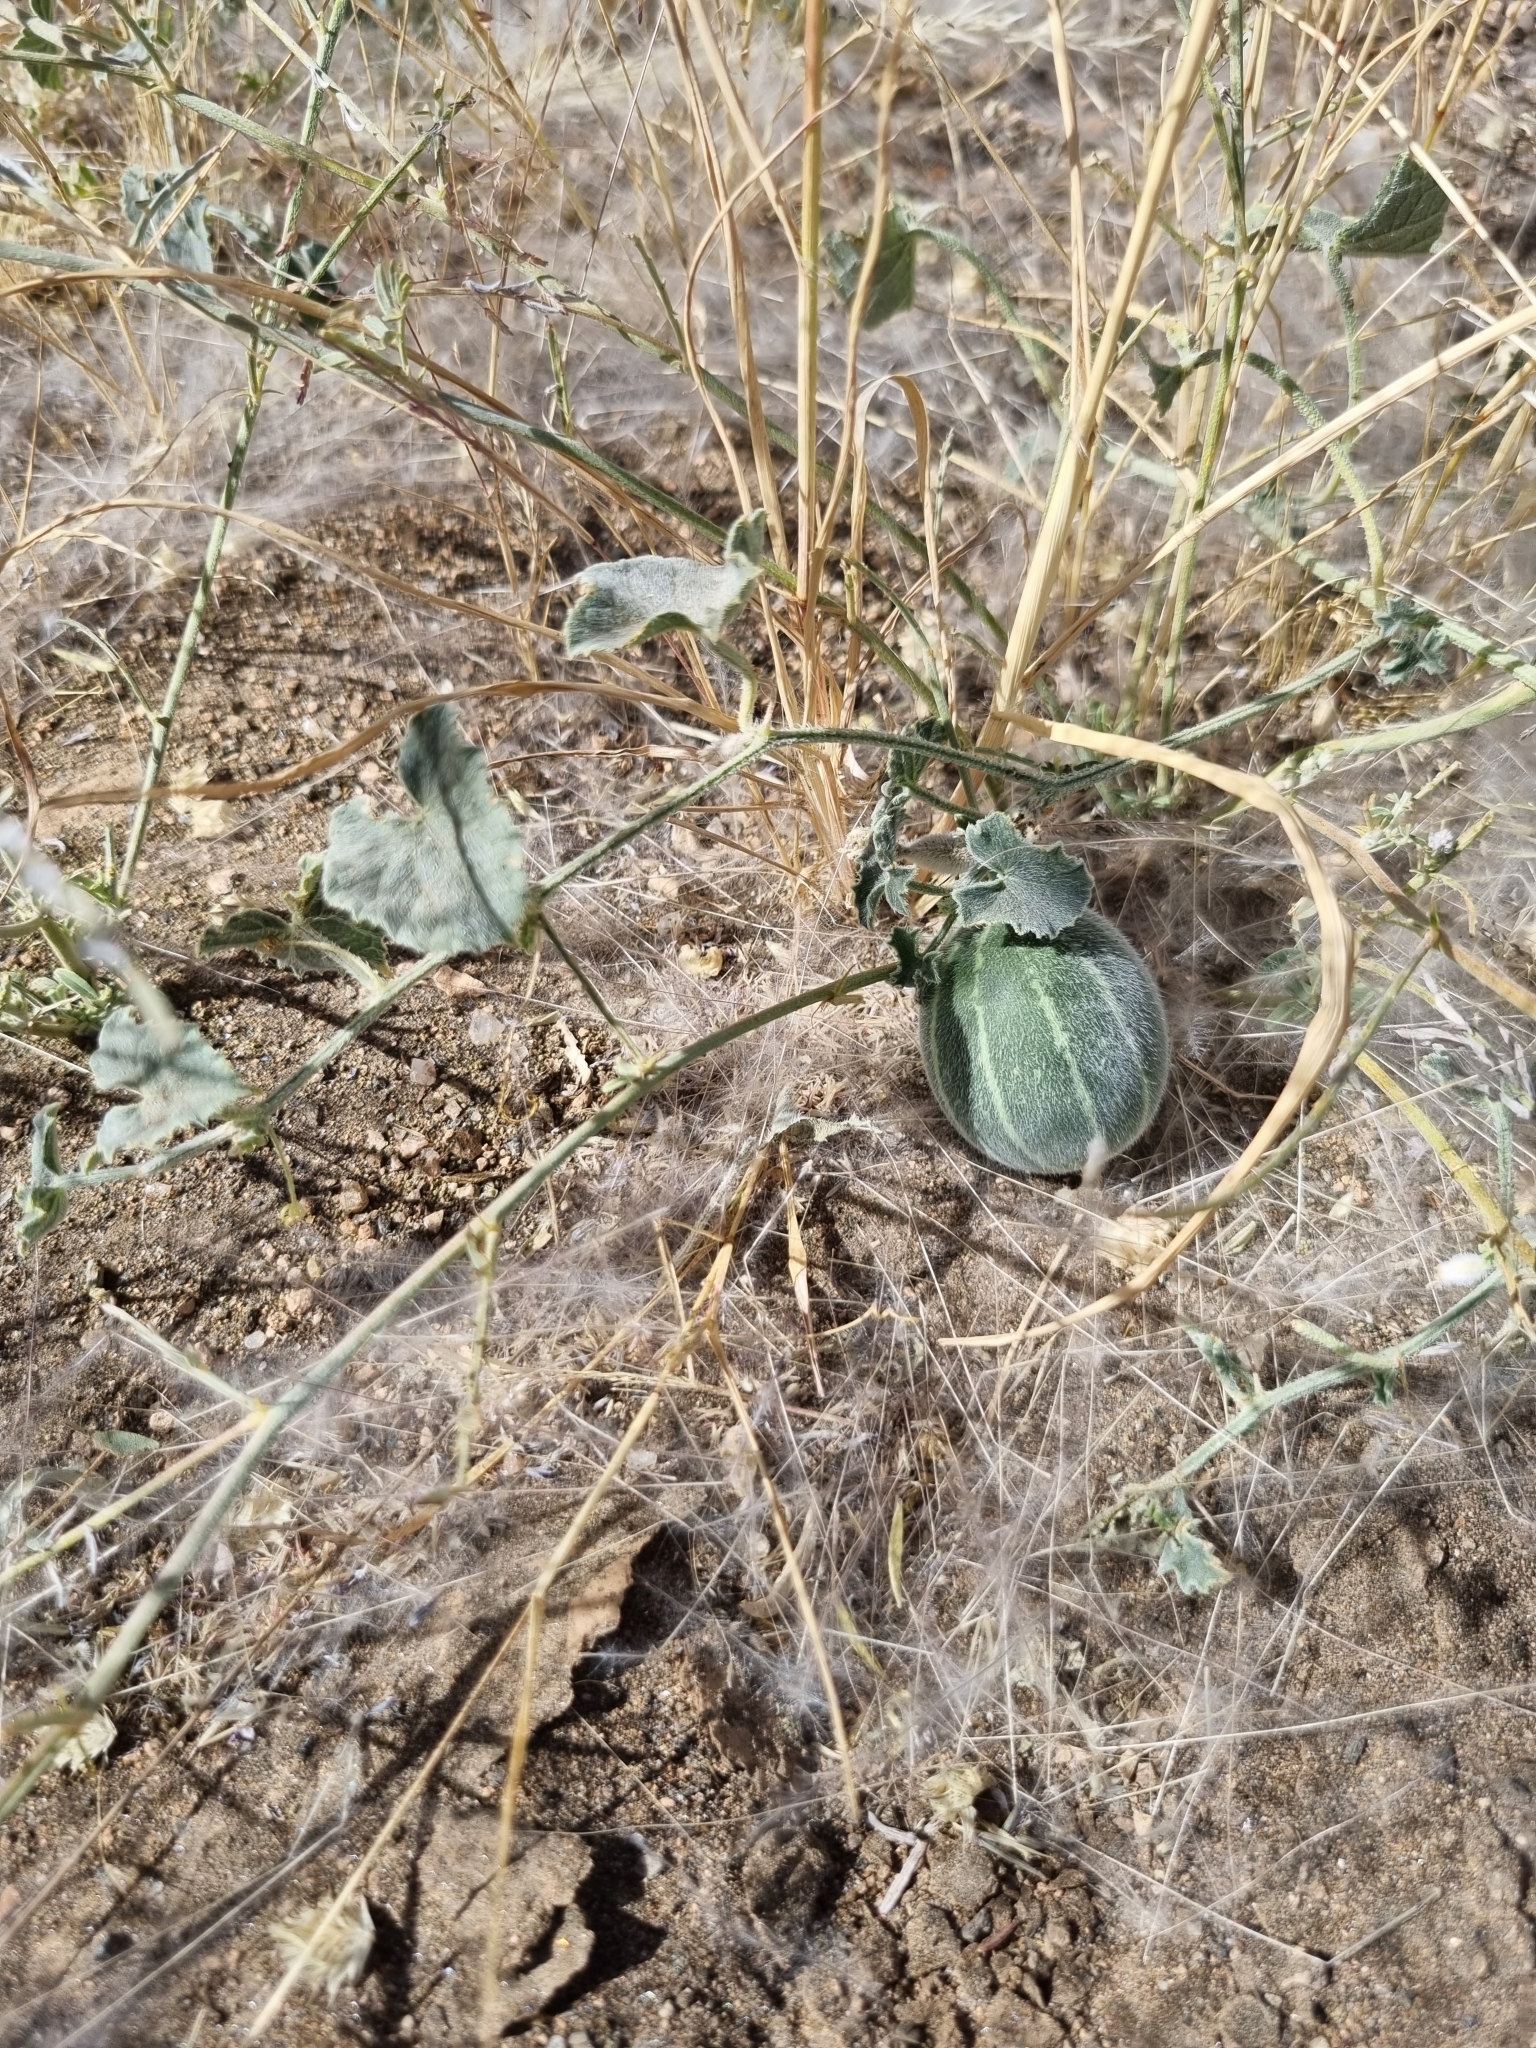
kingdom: Plantae
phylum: Tracheophyta
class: Magnoliopsida
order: Cucurbitales
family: Cucurbitaceae
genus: Cucumis
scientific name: Cucumis sagittatus
